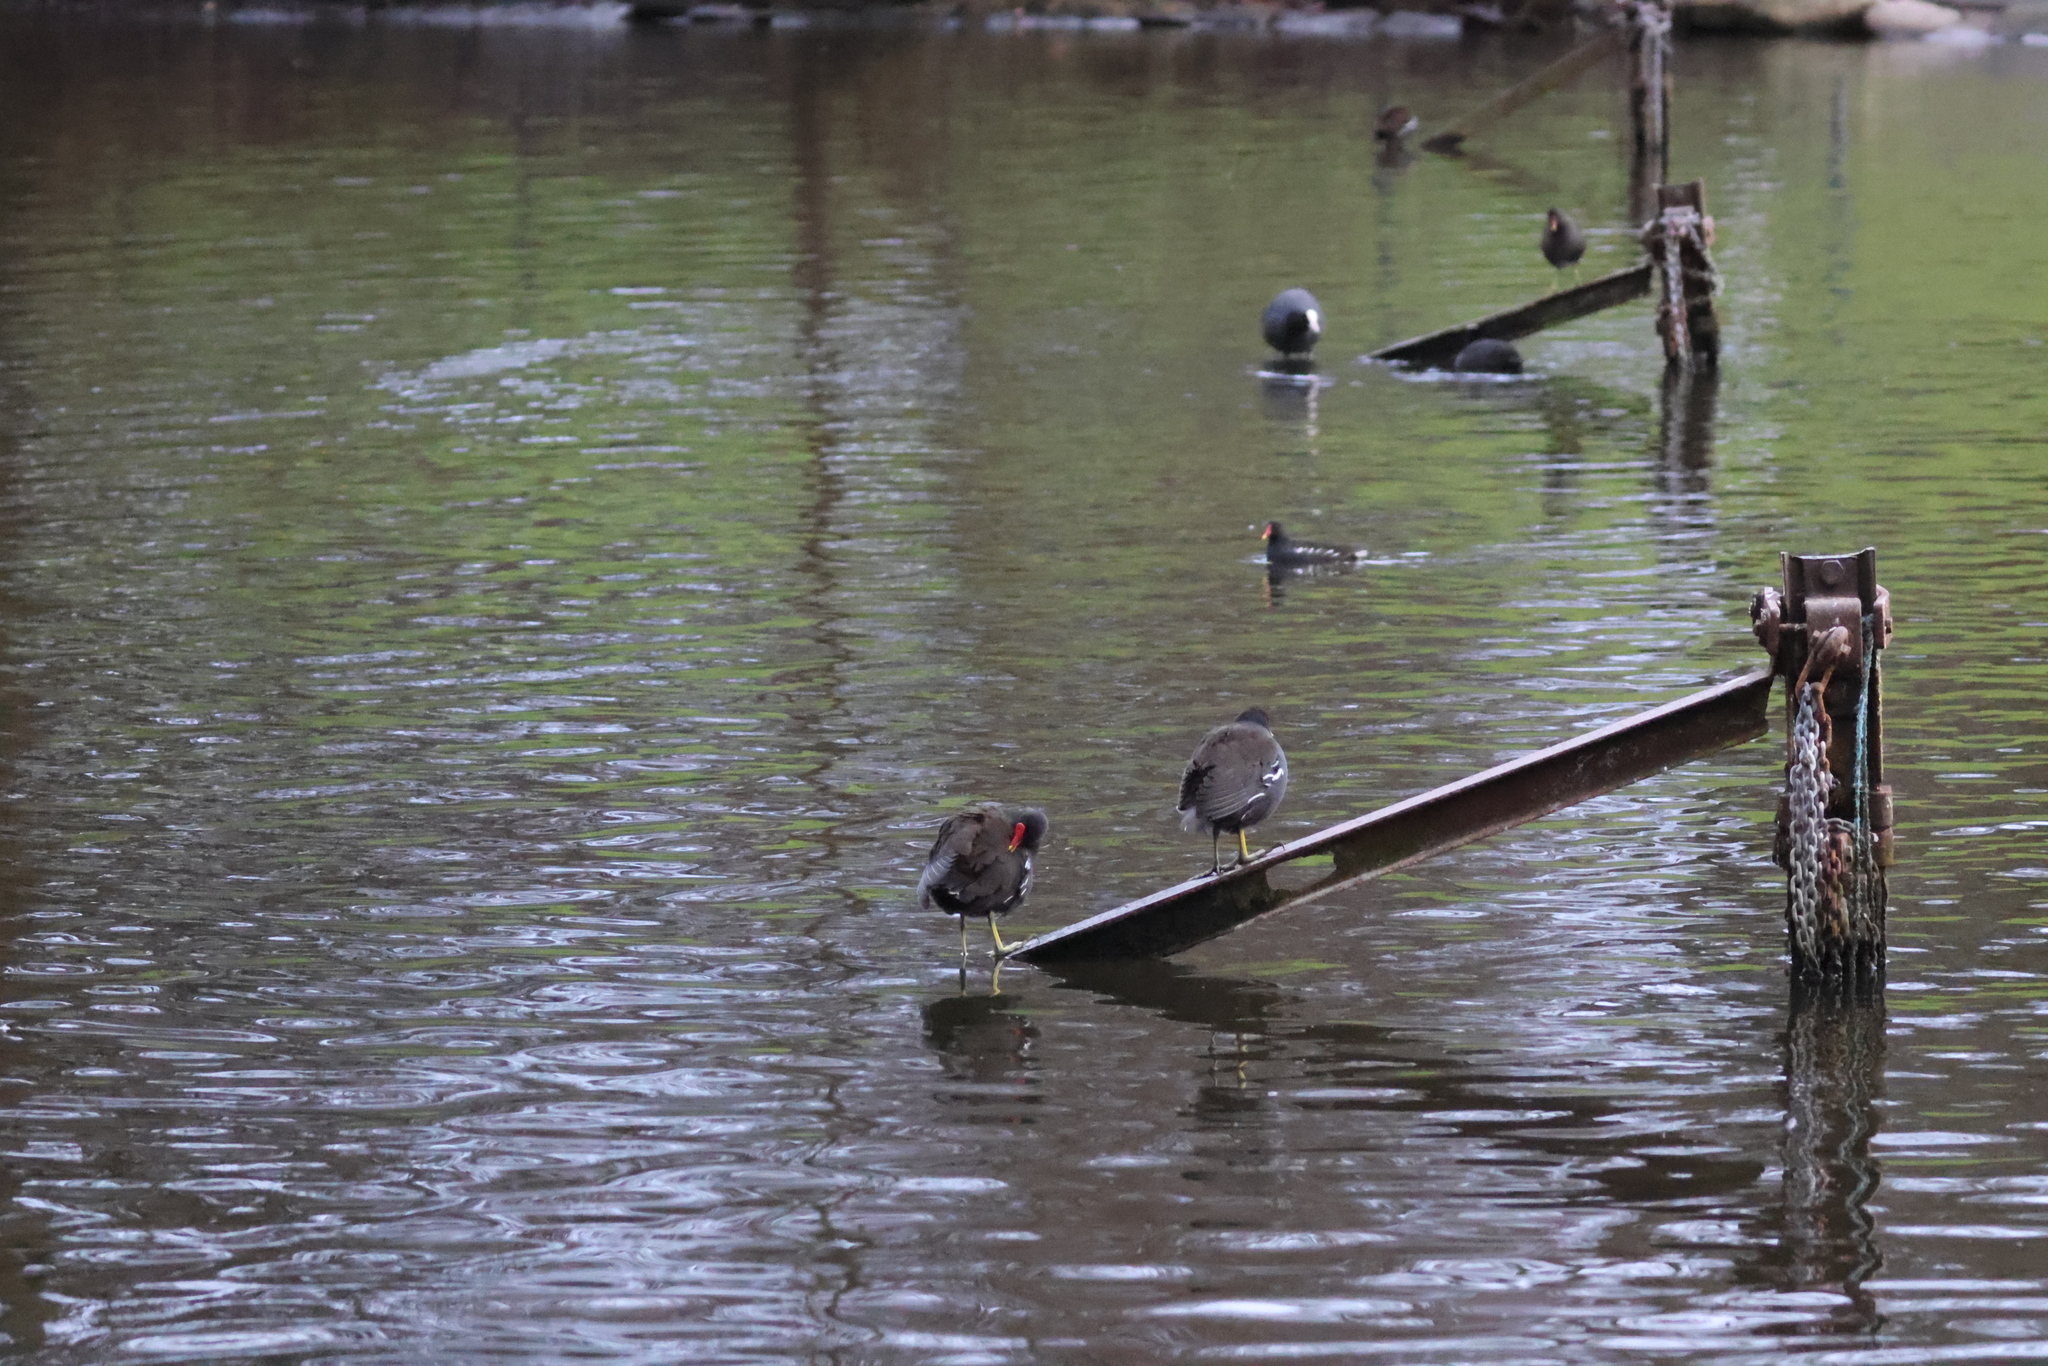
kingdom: Animalia
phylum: Chordata
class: Aves
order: Gruiformes
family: Rallidae
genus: Gallinula
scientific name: Gallinula chloropus
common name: Common moorhen
